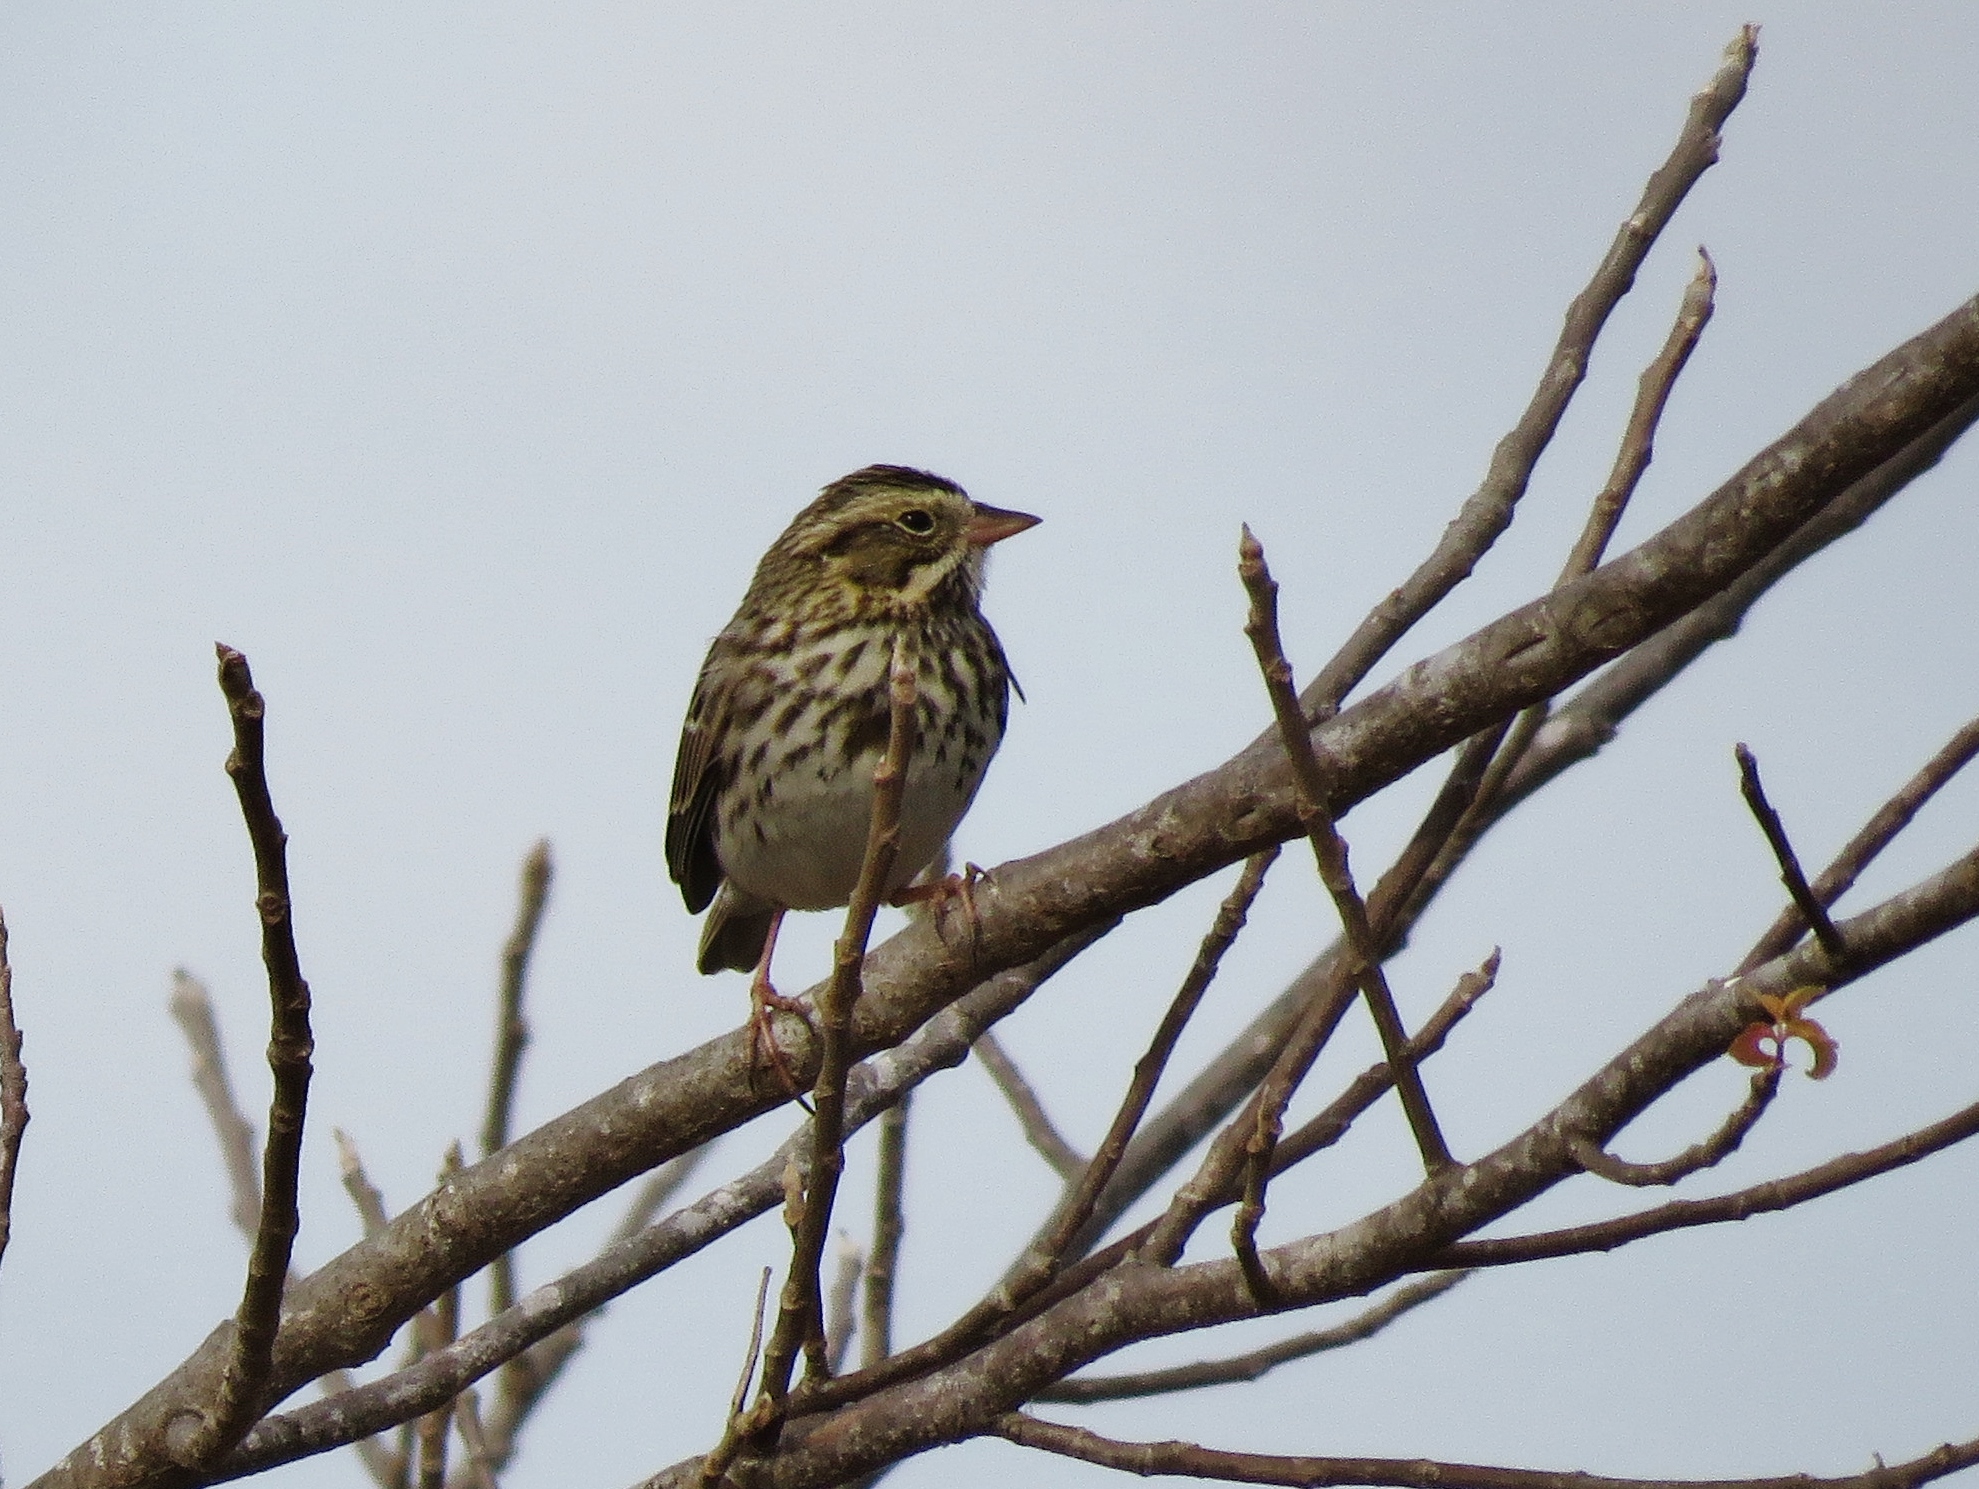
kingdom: Animalia
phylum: Chordata
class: Aves
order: Passeriformes
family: Passerellidae
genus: Passerculus
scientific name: Passerculus sandwichensis
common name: Savannah sparrow
